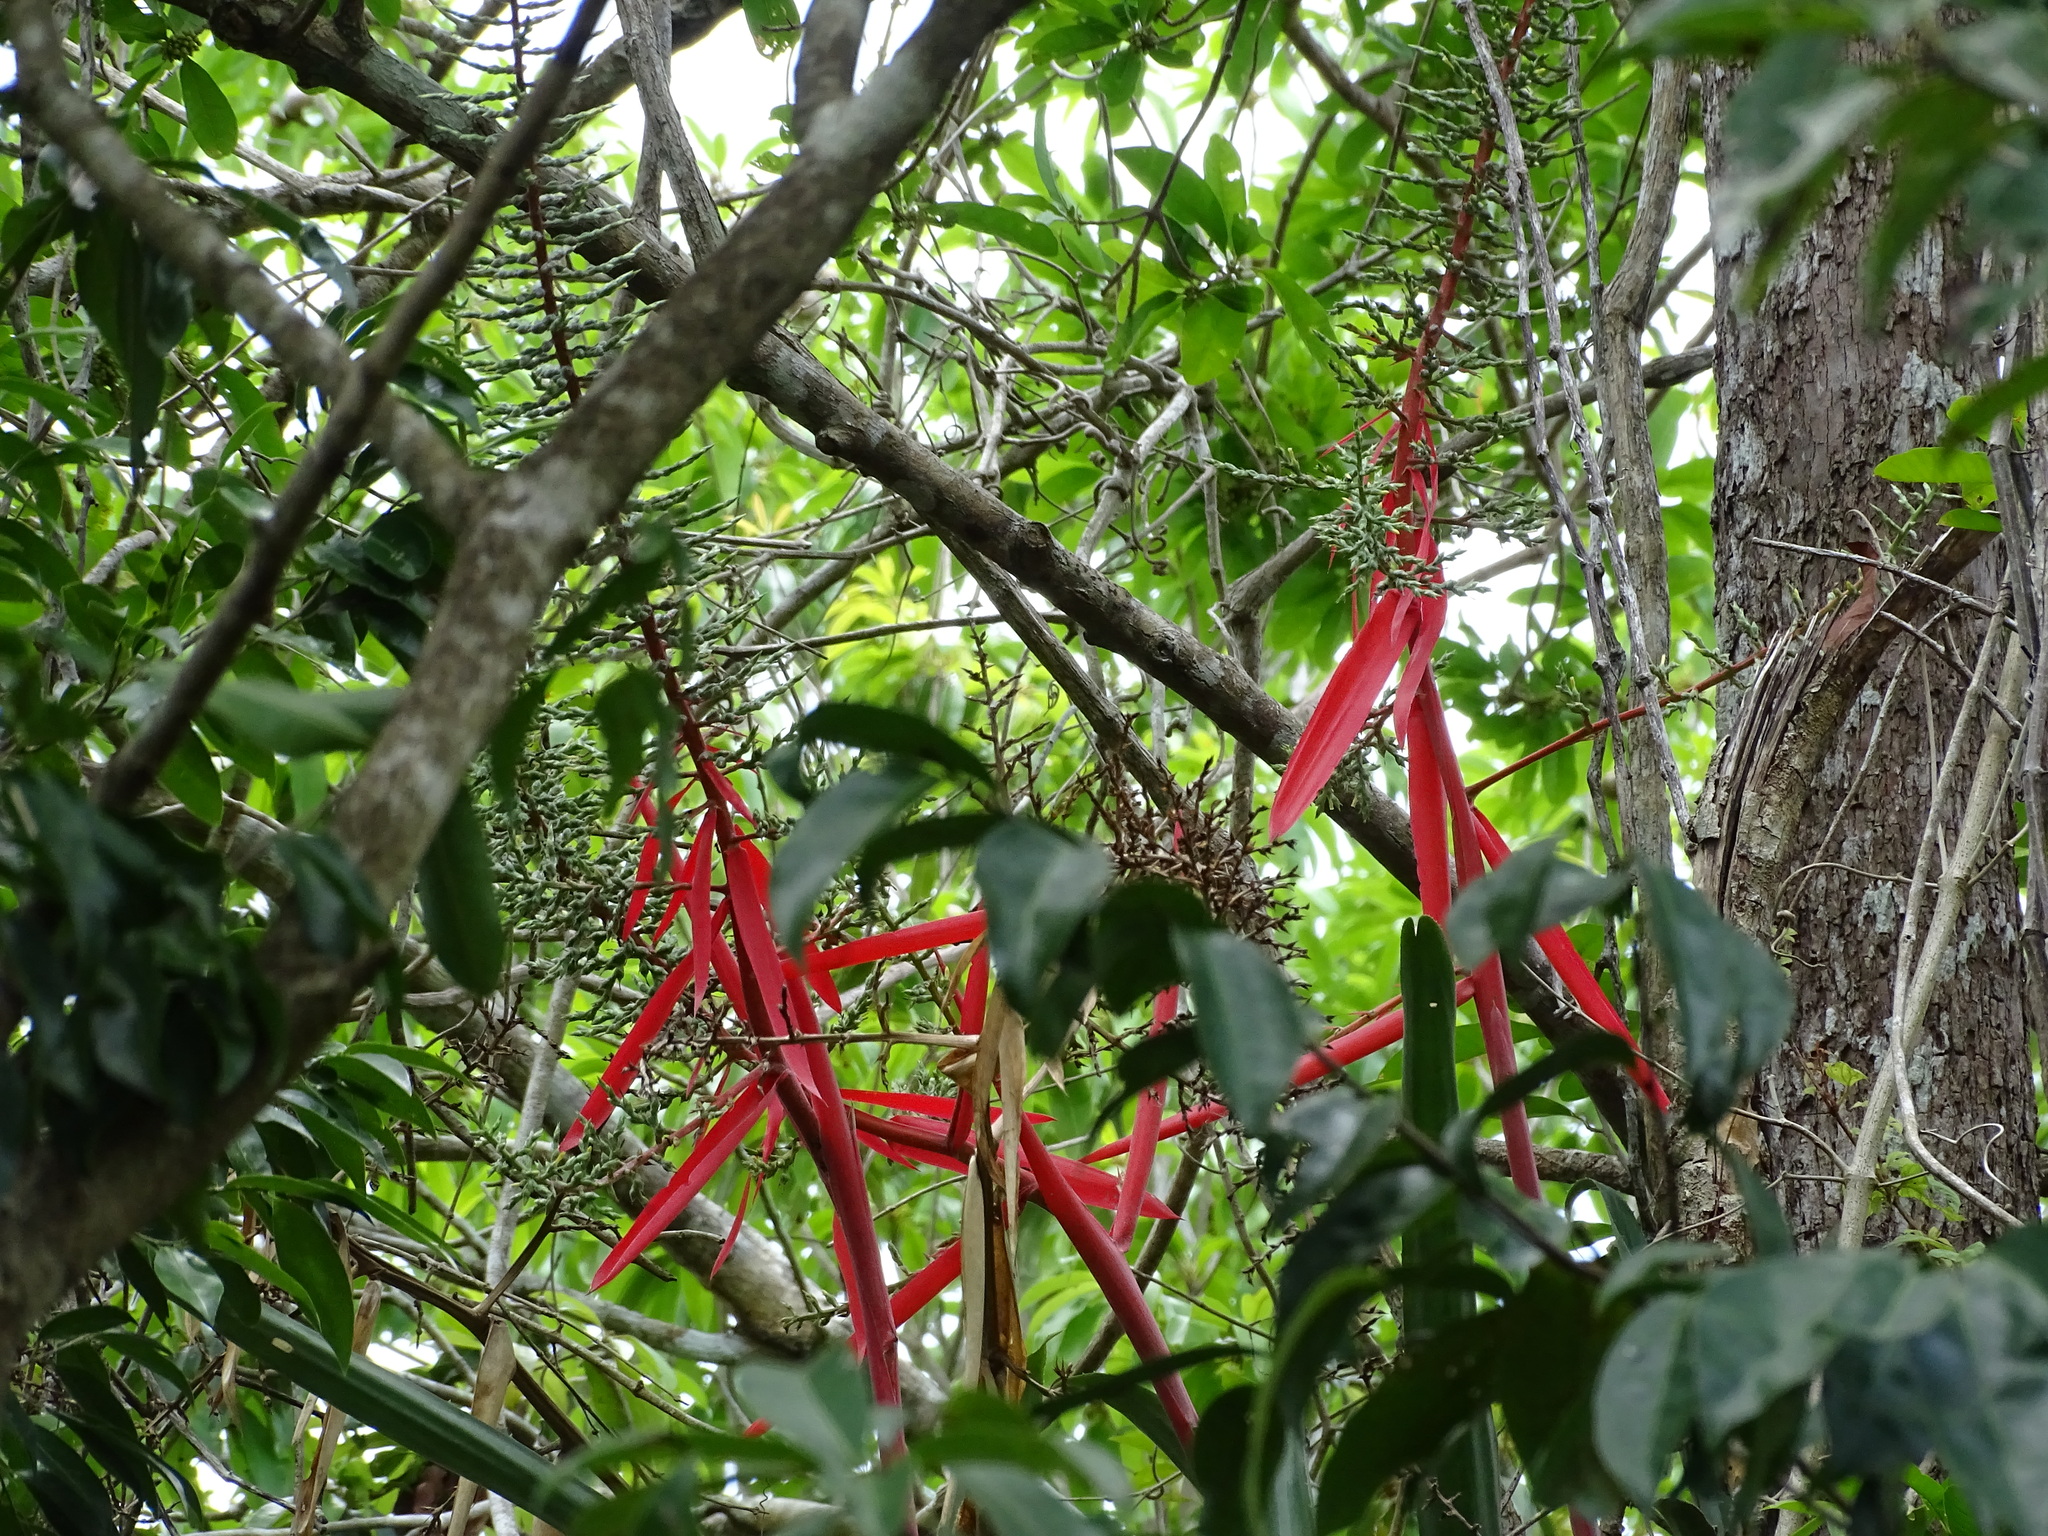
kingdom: Plantae
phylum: Tracheophyta
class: Liliopsida
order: Poales
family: Bromeliaceae
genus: Aechmea
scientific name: Aechmea bracteata
